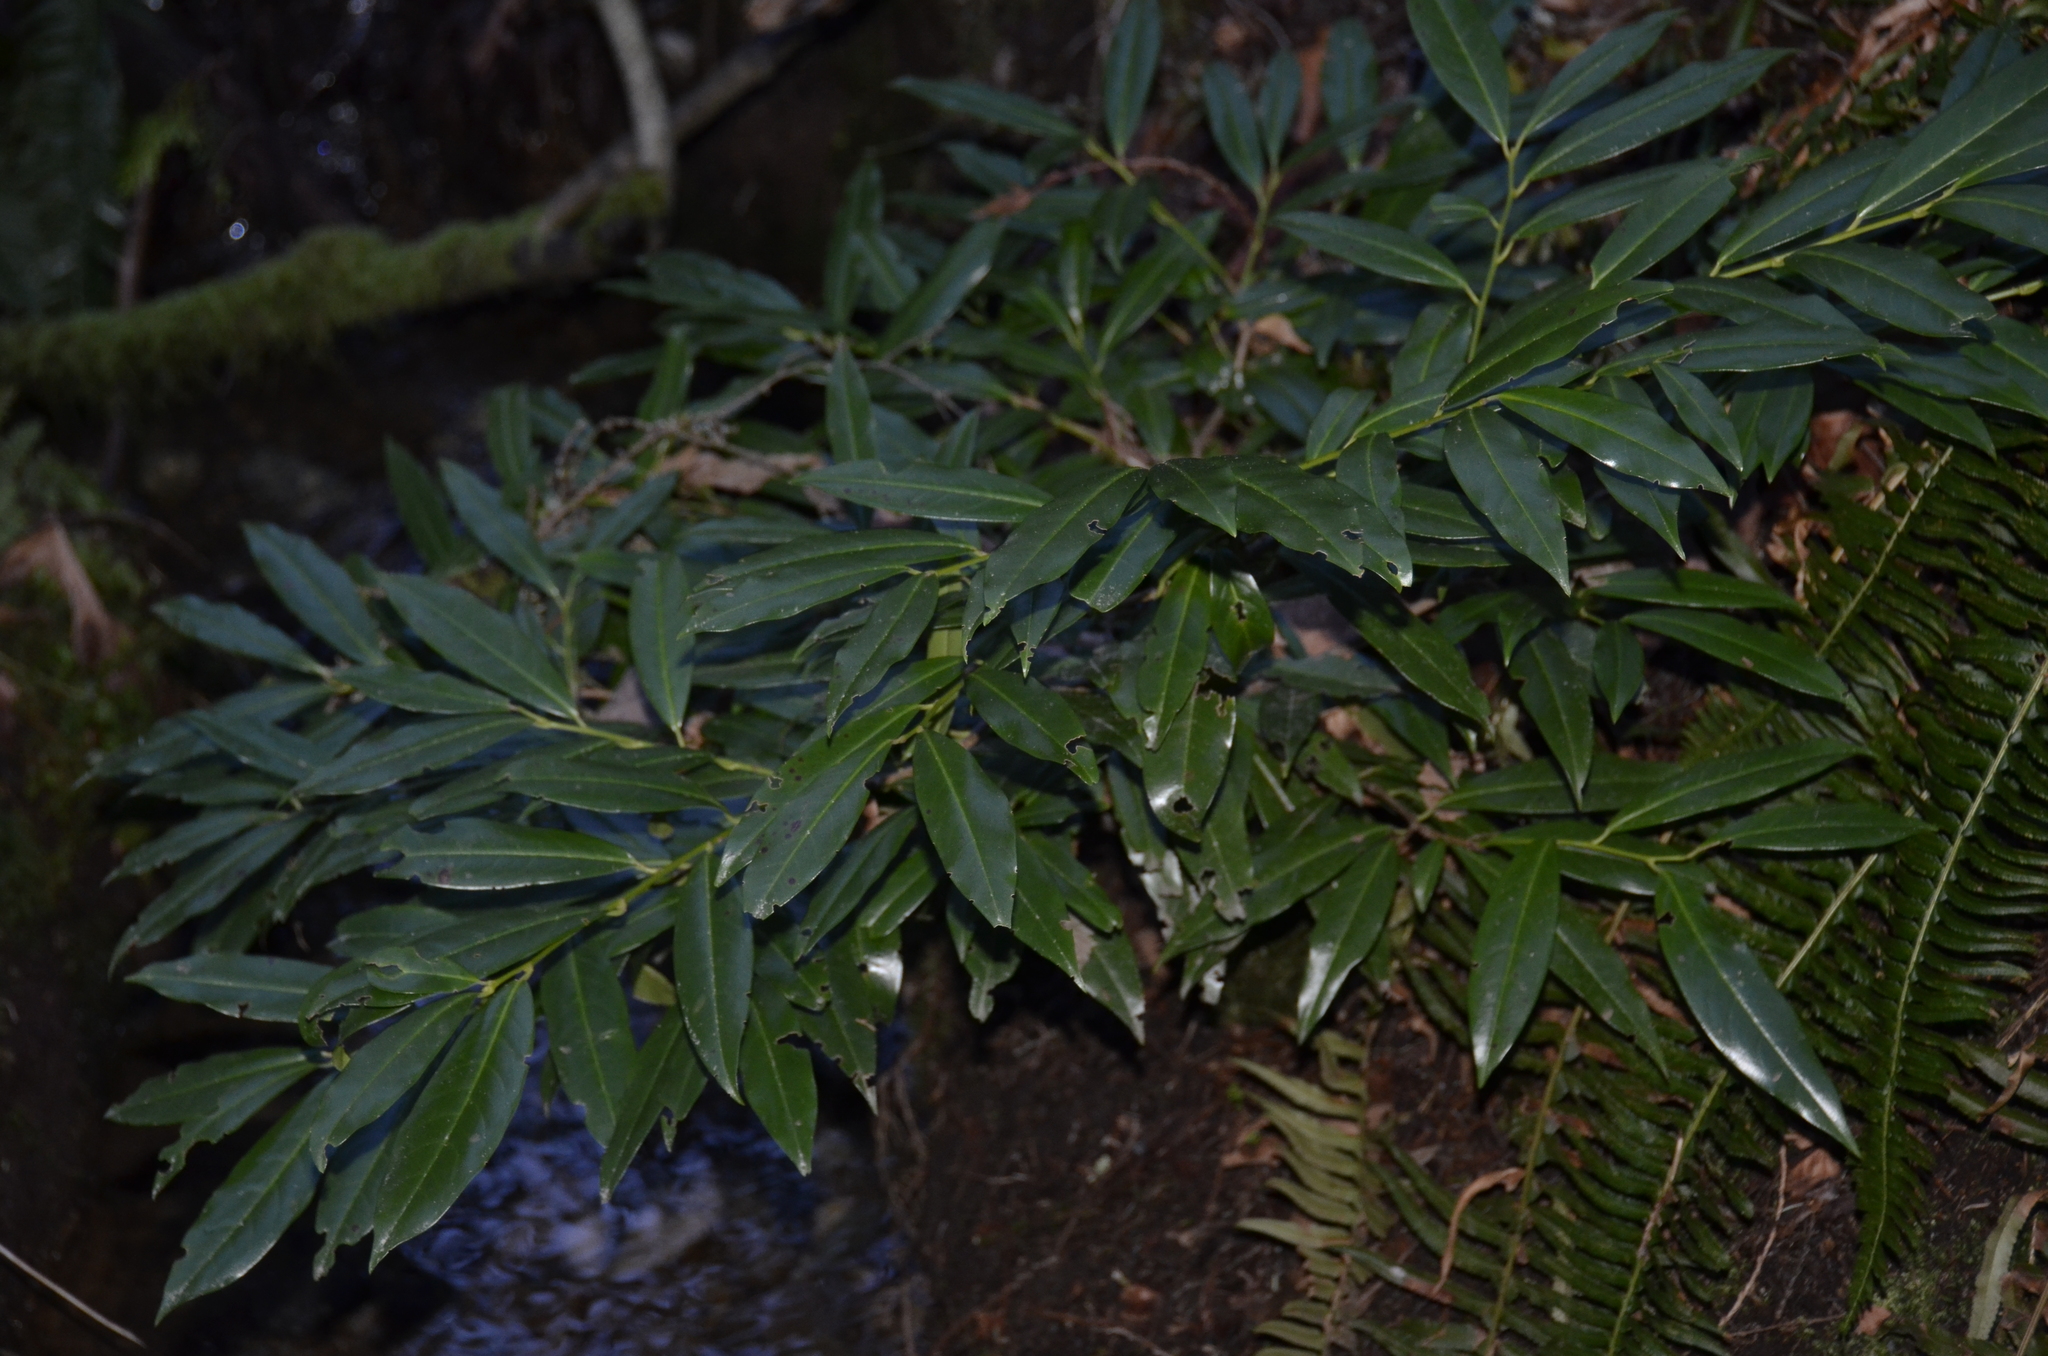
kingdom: Plantae
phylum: Tracheophyta
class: Magnoliopsida
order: Rosales
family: Rosaceae
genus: Prunus
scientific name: Prunus laurocerasus
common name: Cherry laurel
